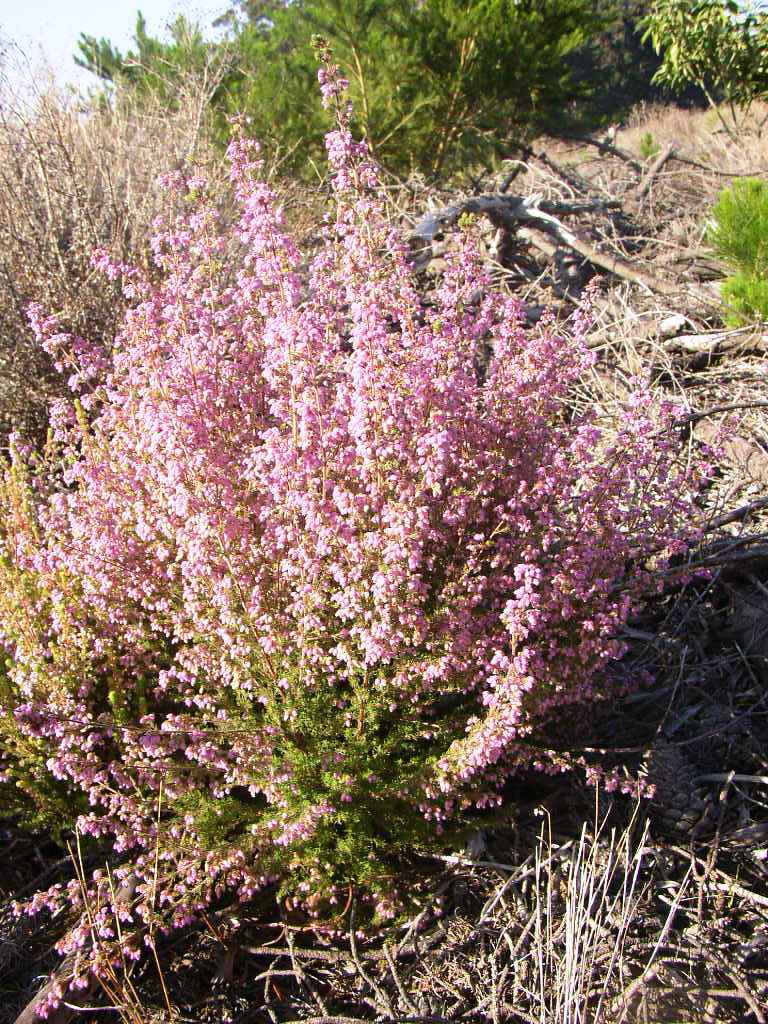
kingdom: Plantae
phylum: Tracheophyta
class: Magnoliopsida
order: Ericales
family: Ericaceae
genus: Erica
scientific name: Erica hirtiflora
